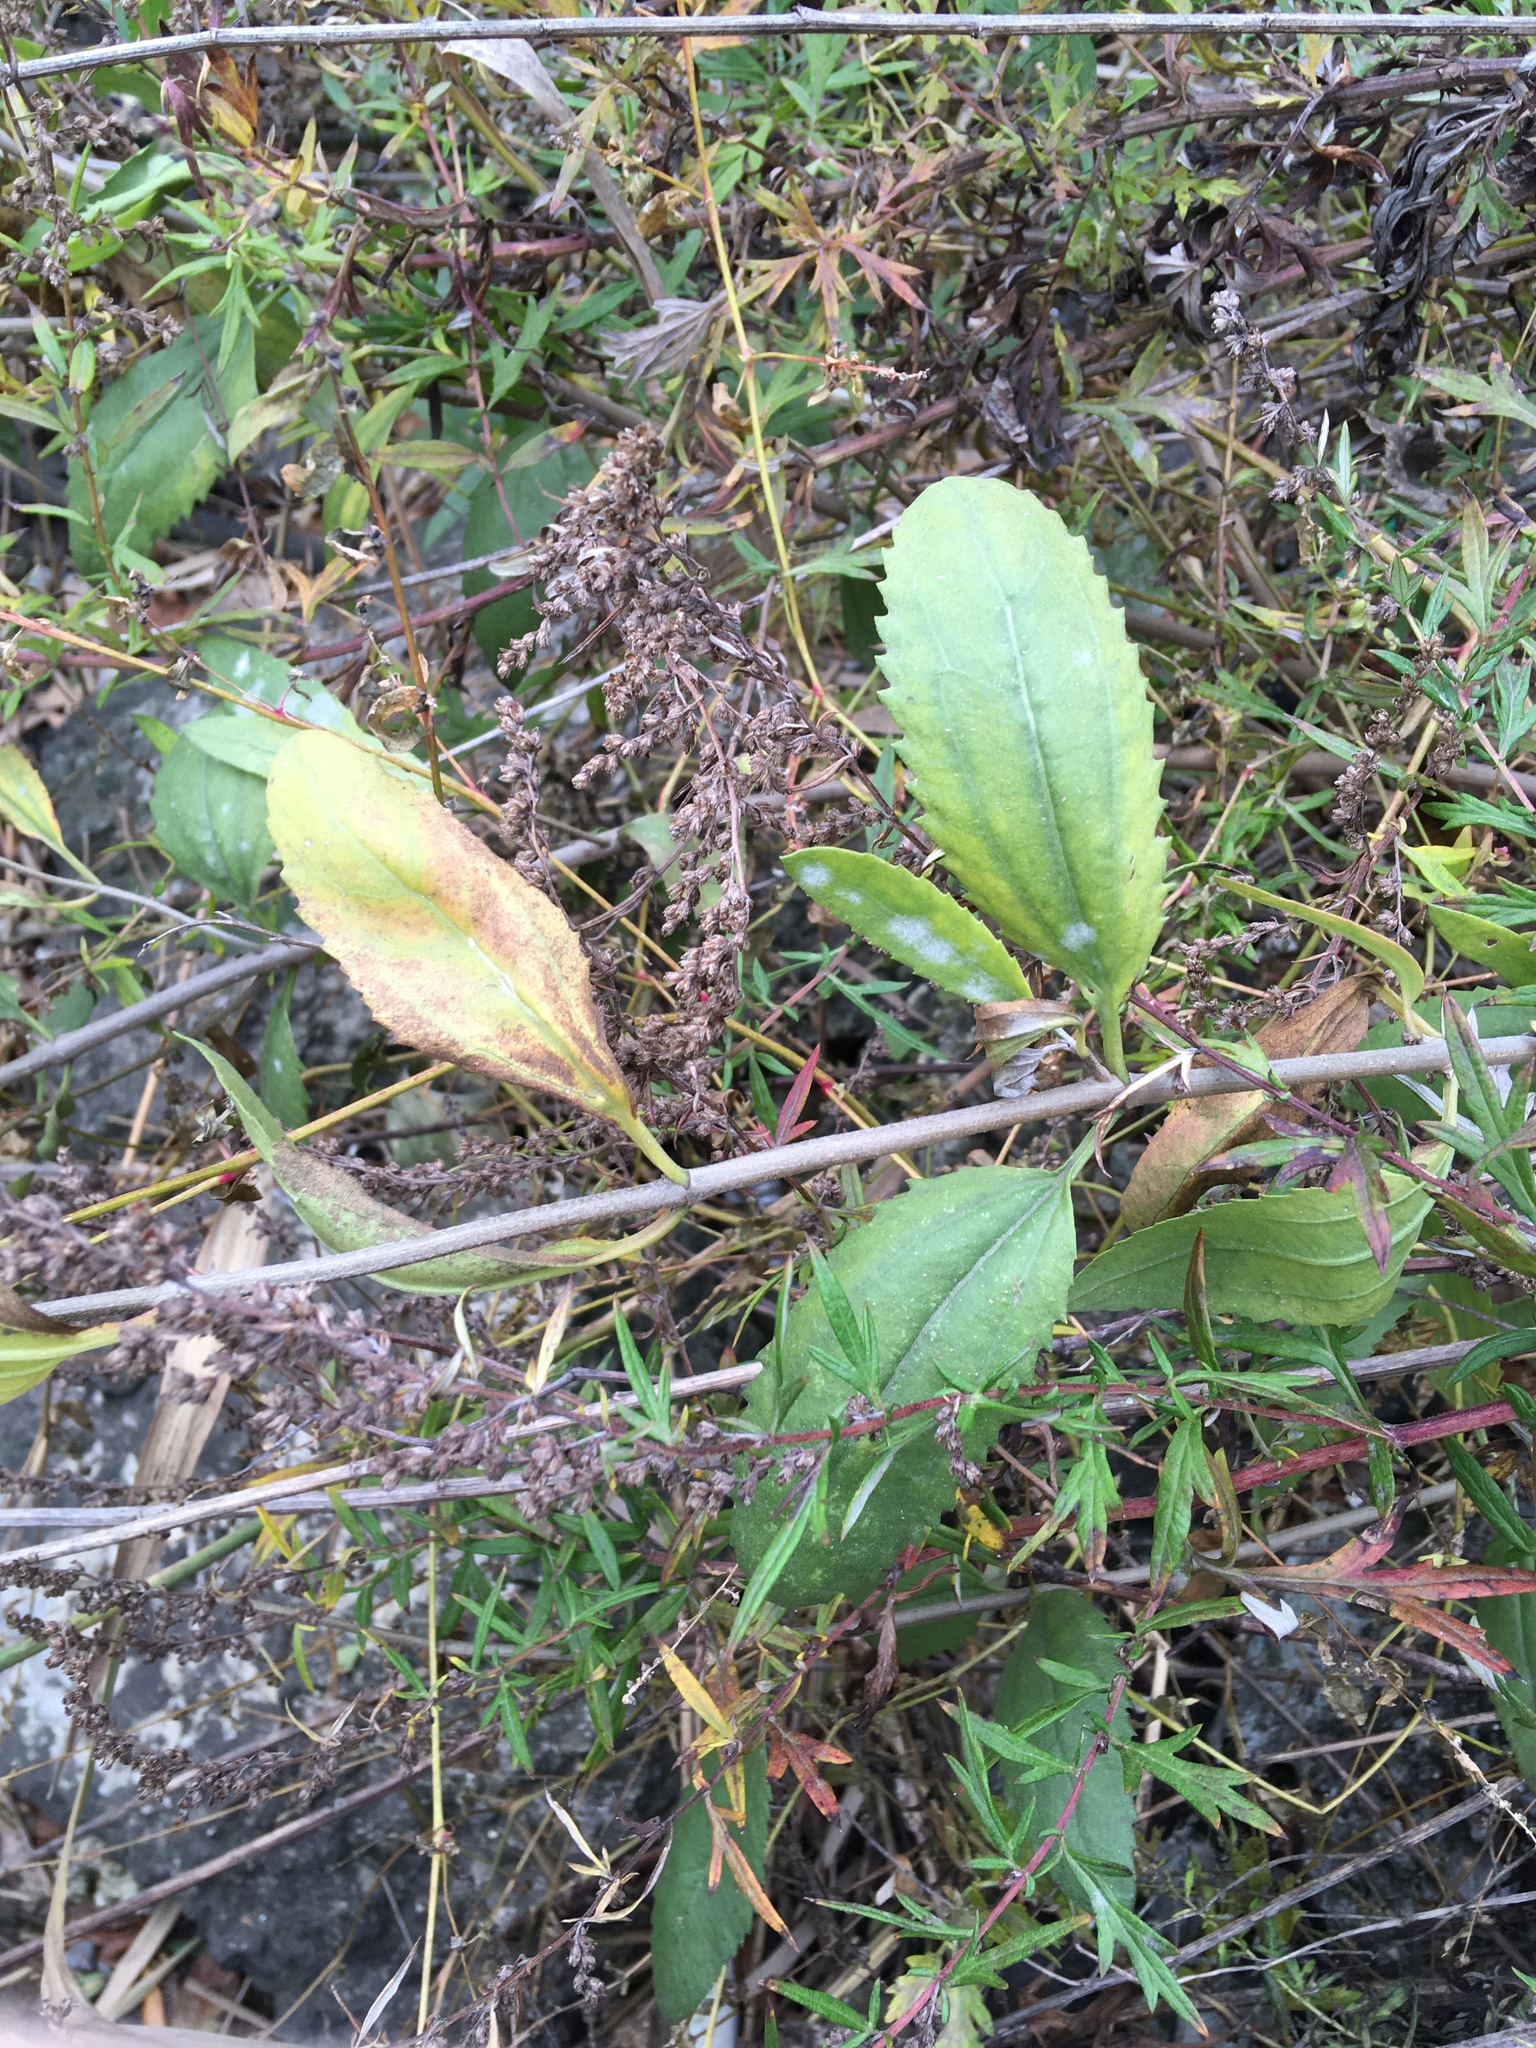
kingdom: Plantae
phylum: Tracheophyta
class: Magnoliopsida
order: Asterales
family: Asteraceae
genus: Iva
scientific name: Iva frutescens
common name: Big-leaved marsh-elder
